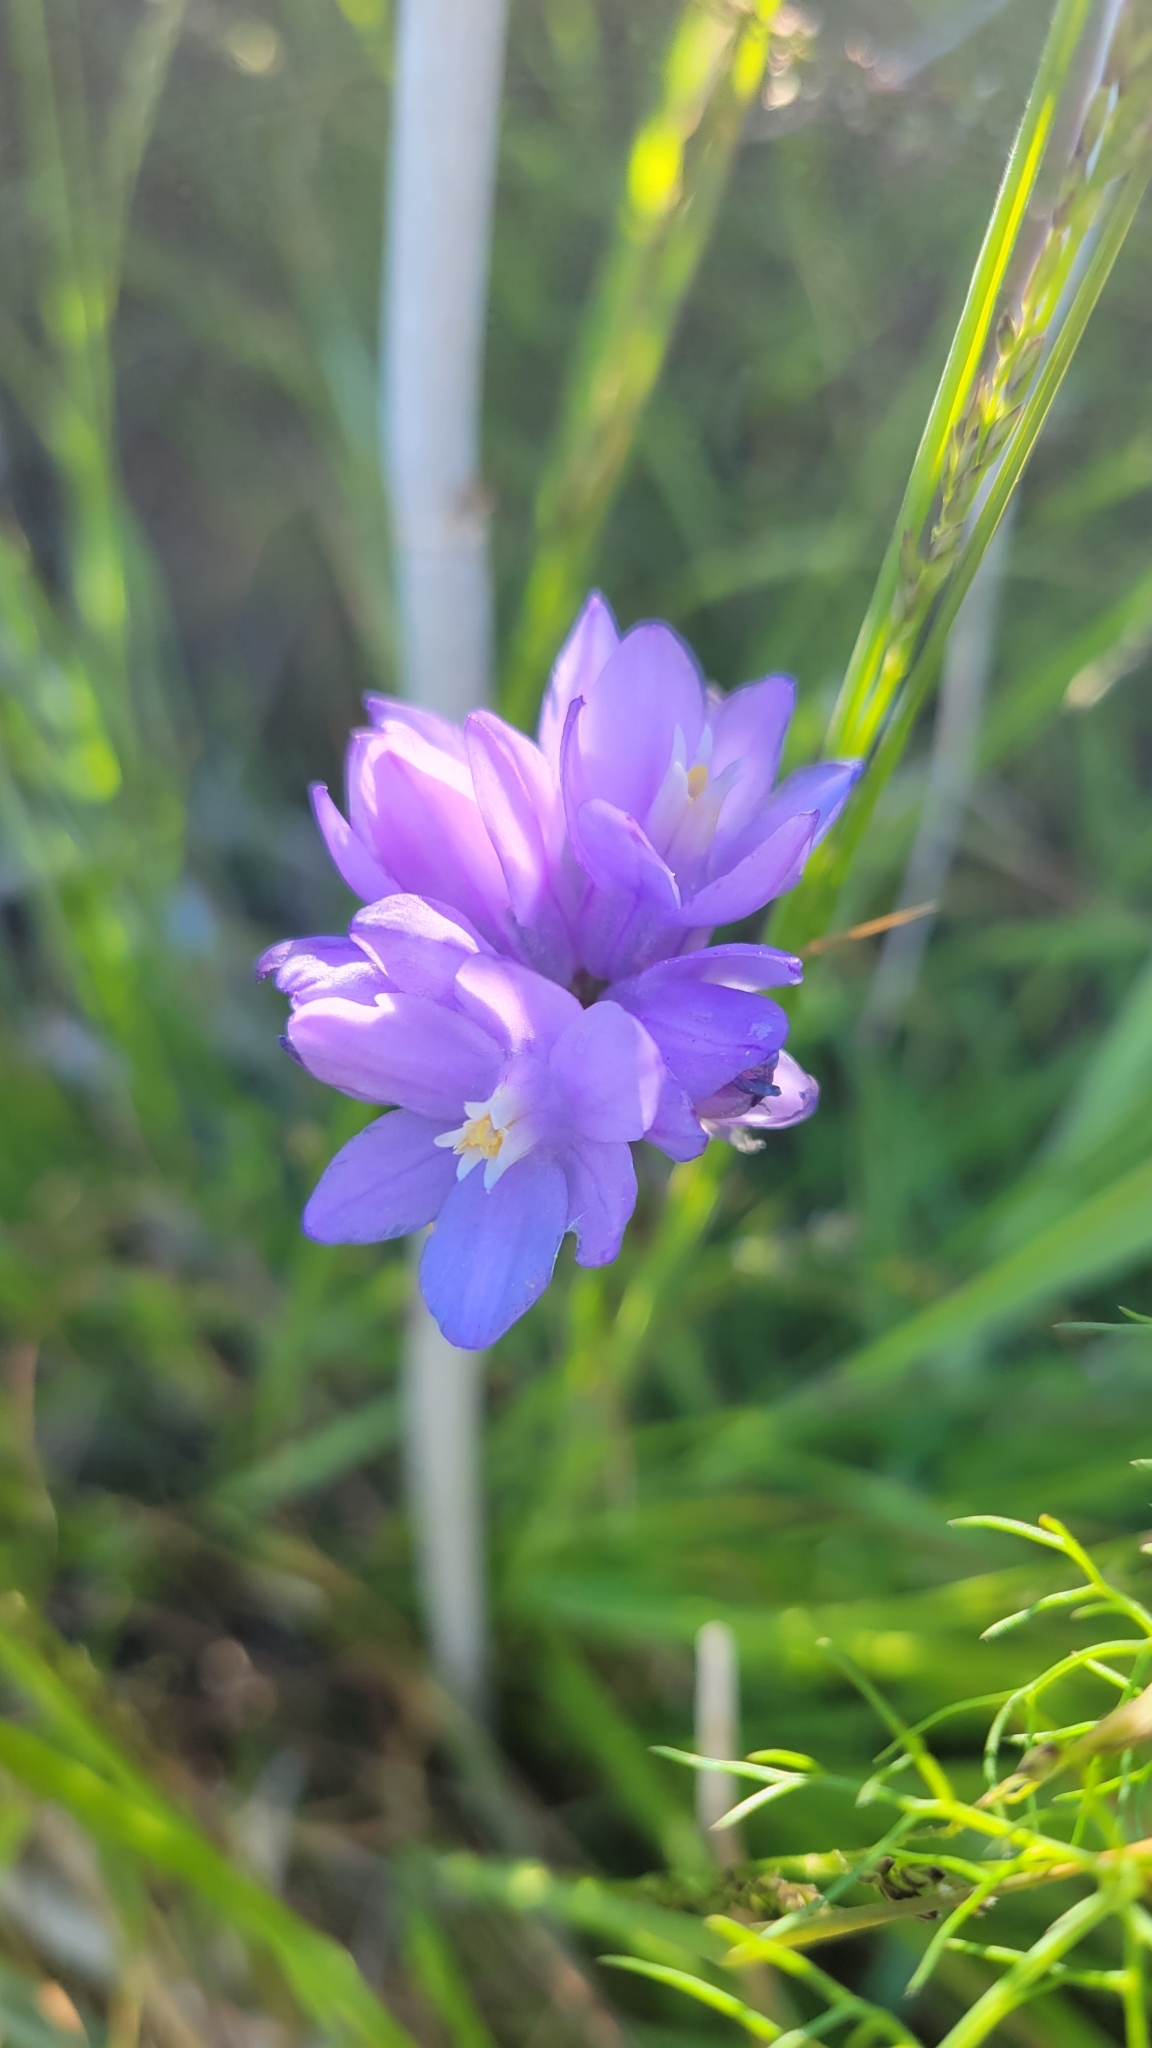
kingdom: Plantae
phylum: Tracheophyta
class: Liliopsida
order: Asparagales
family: Asparagaceae
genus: Dipterostemon
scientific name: Dipterostemon capitatus
